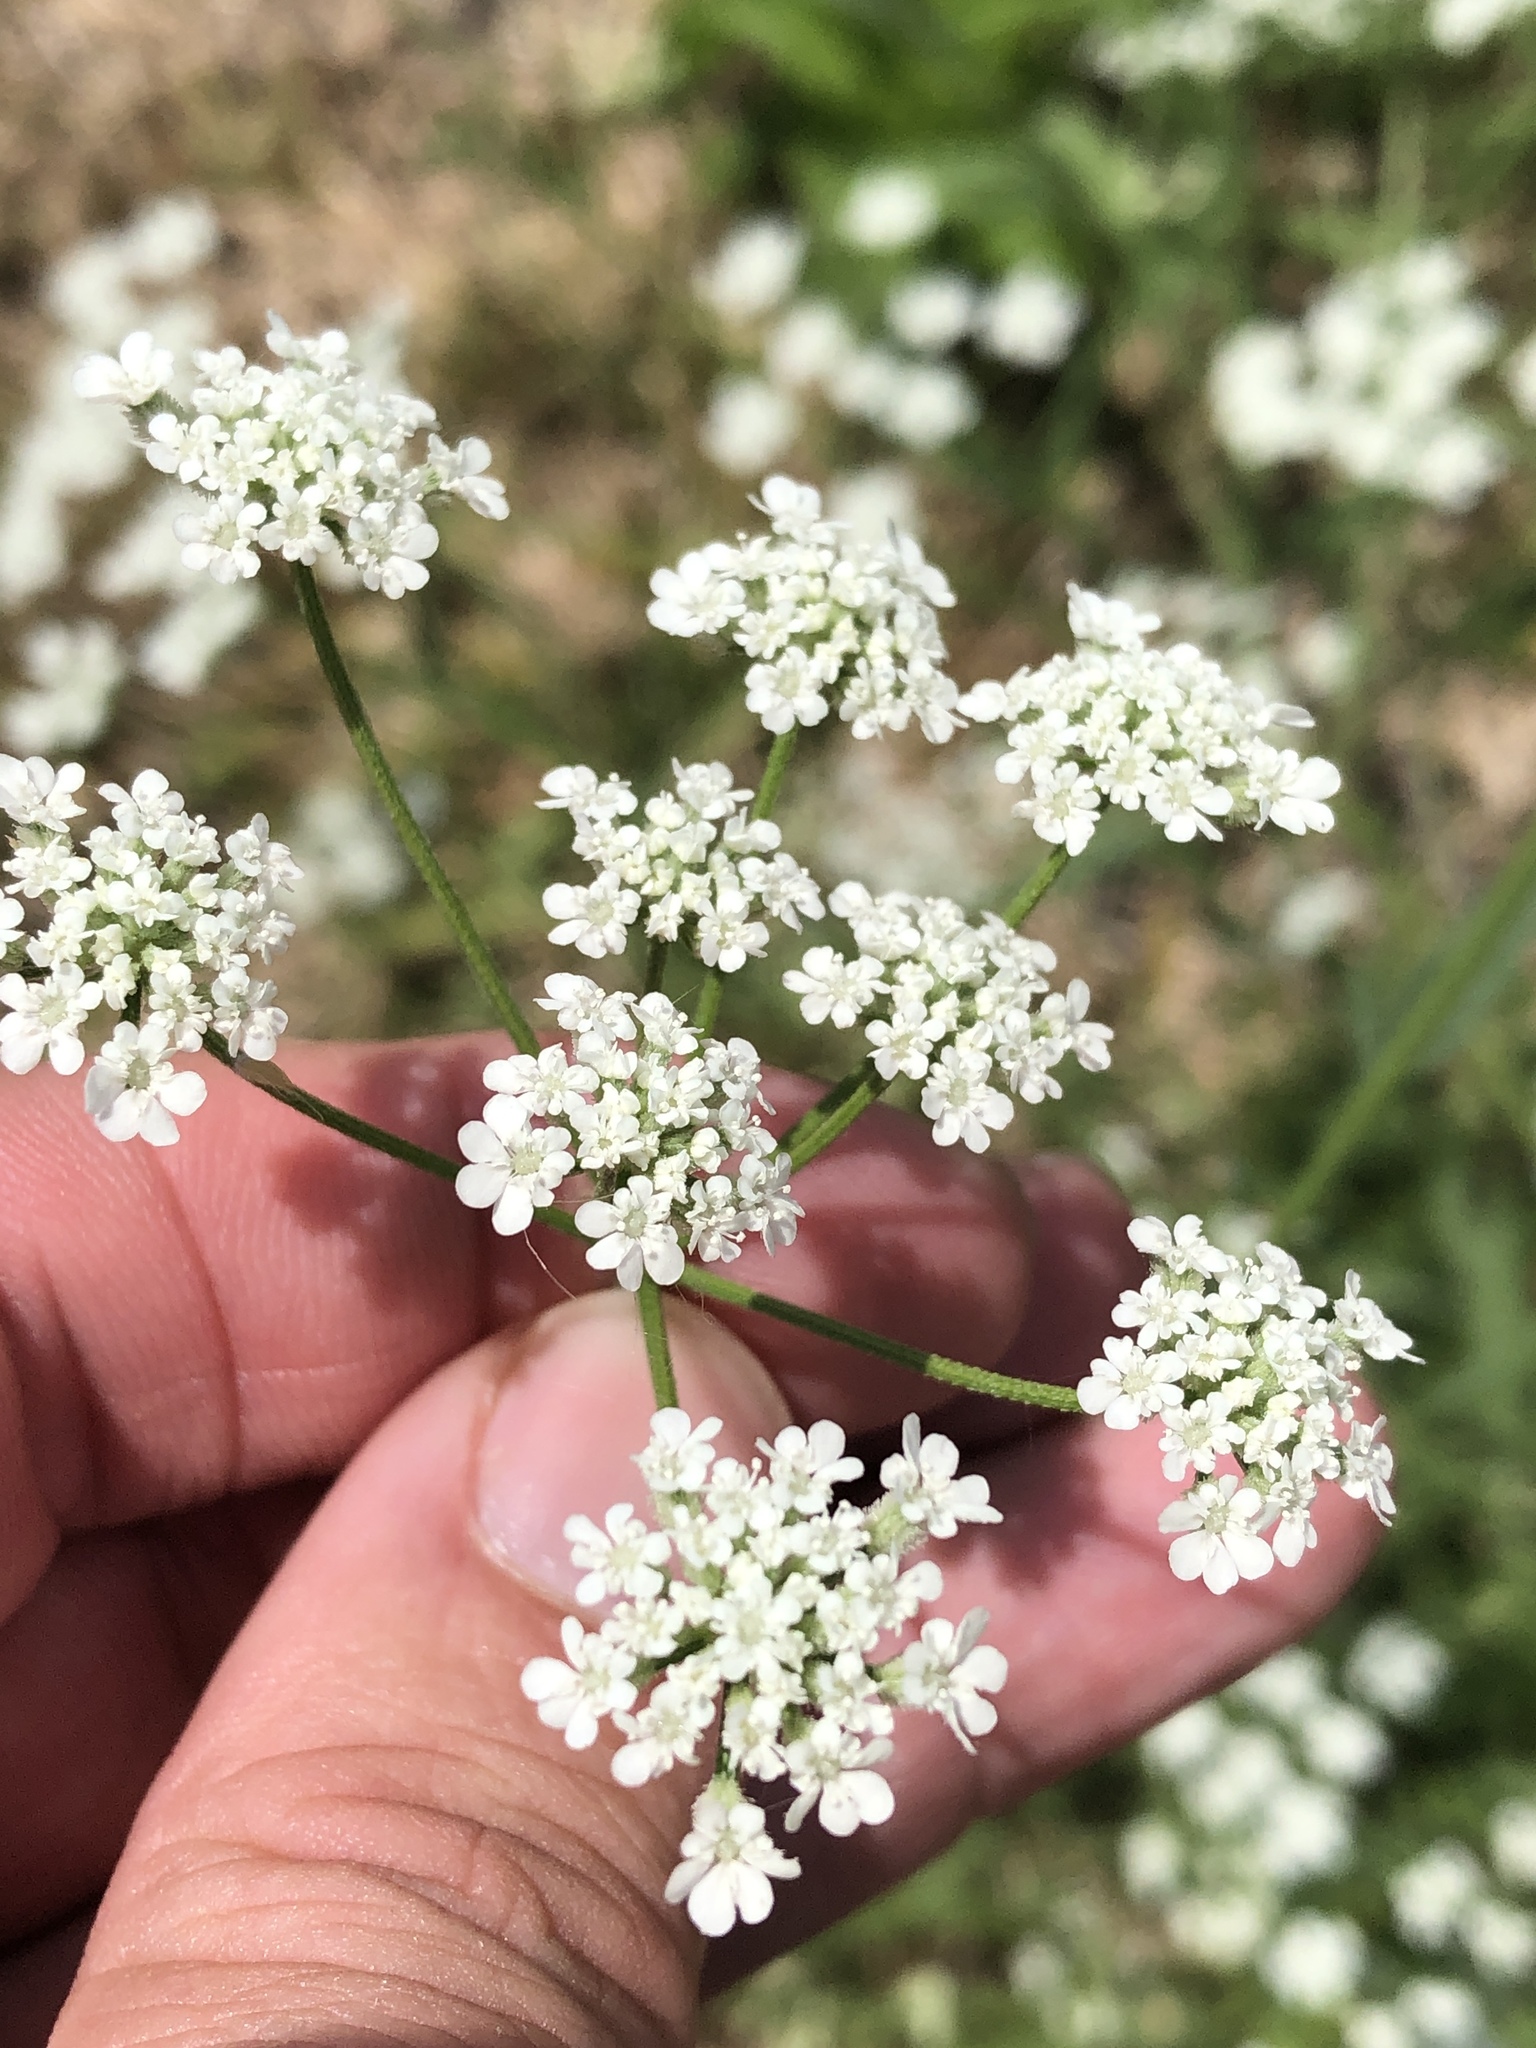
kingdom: Plantae
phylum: Tracheophyta
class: Magnoliopsida
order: Apiales
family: Apiaceae
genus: Torilis
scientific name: Torilis arvensis
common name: Spreading hedge-parsley
